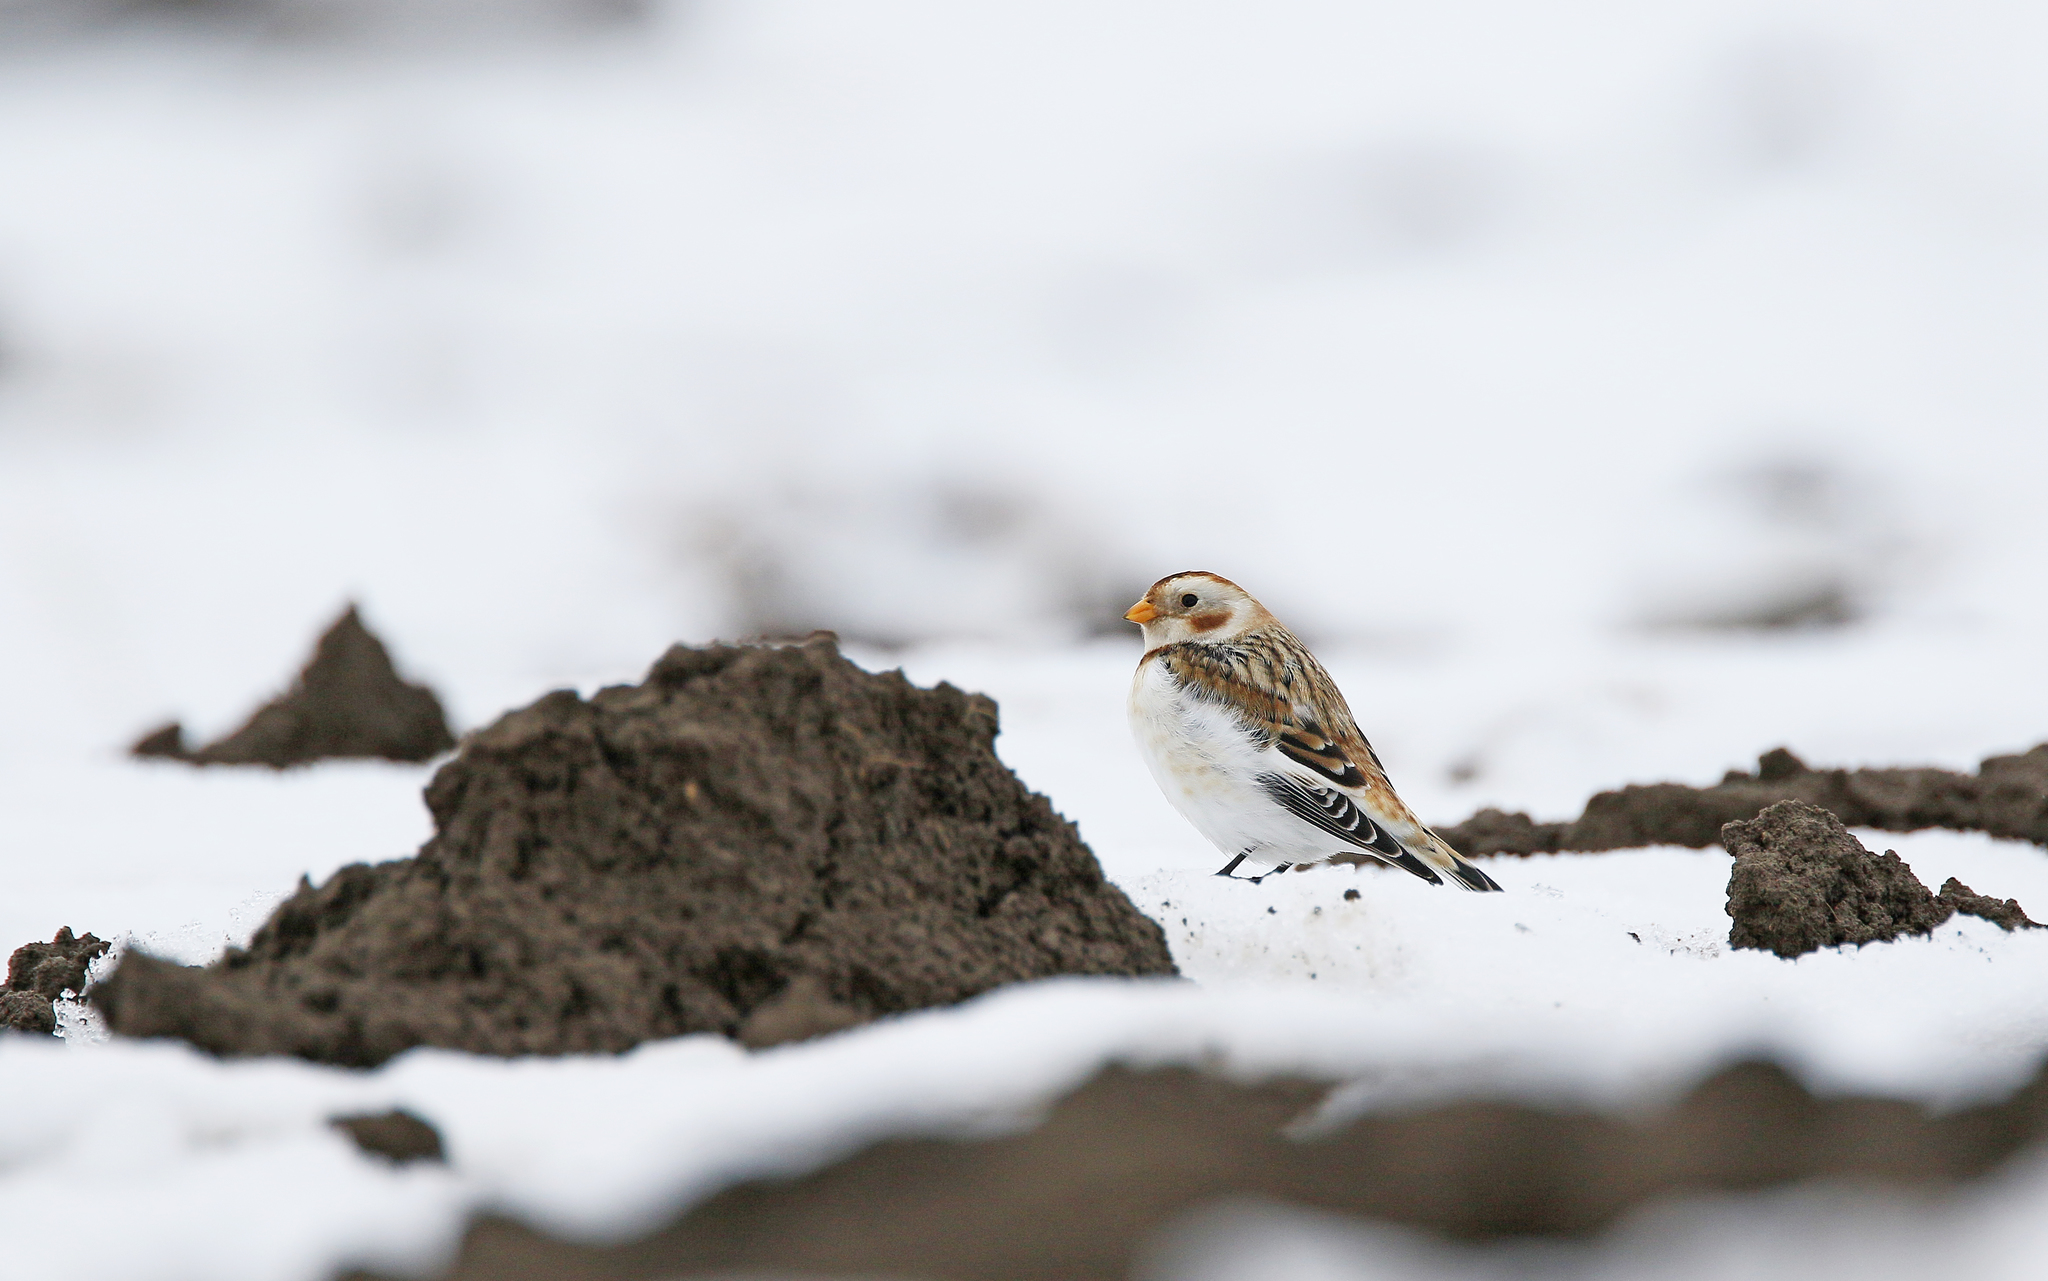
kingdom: Animalia
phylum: Chordata
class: Aves
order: Passeriformes
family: Calcariidae
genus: Plectrophenax
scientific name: Plectrophenax nivalis
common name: Snow bunting
